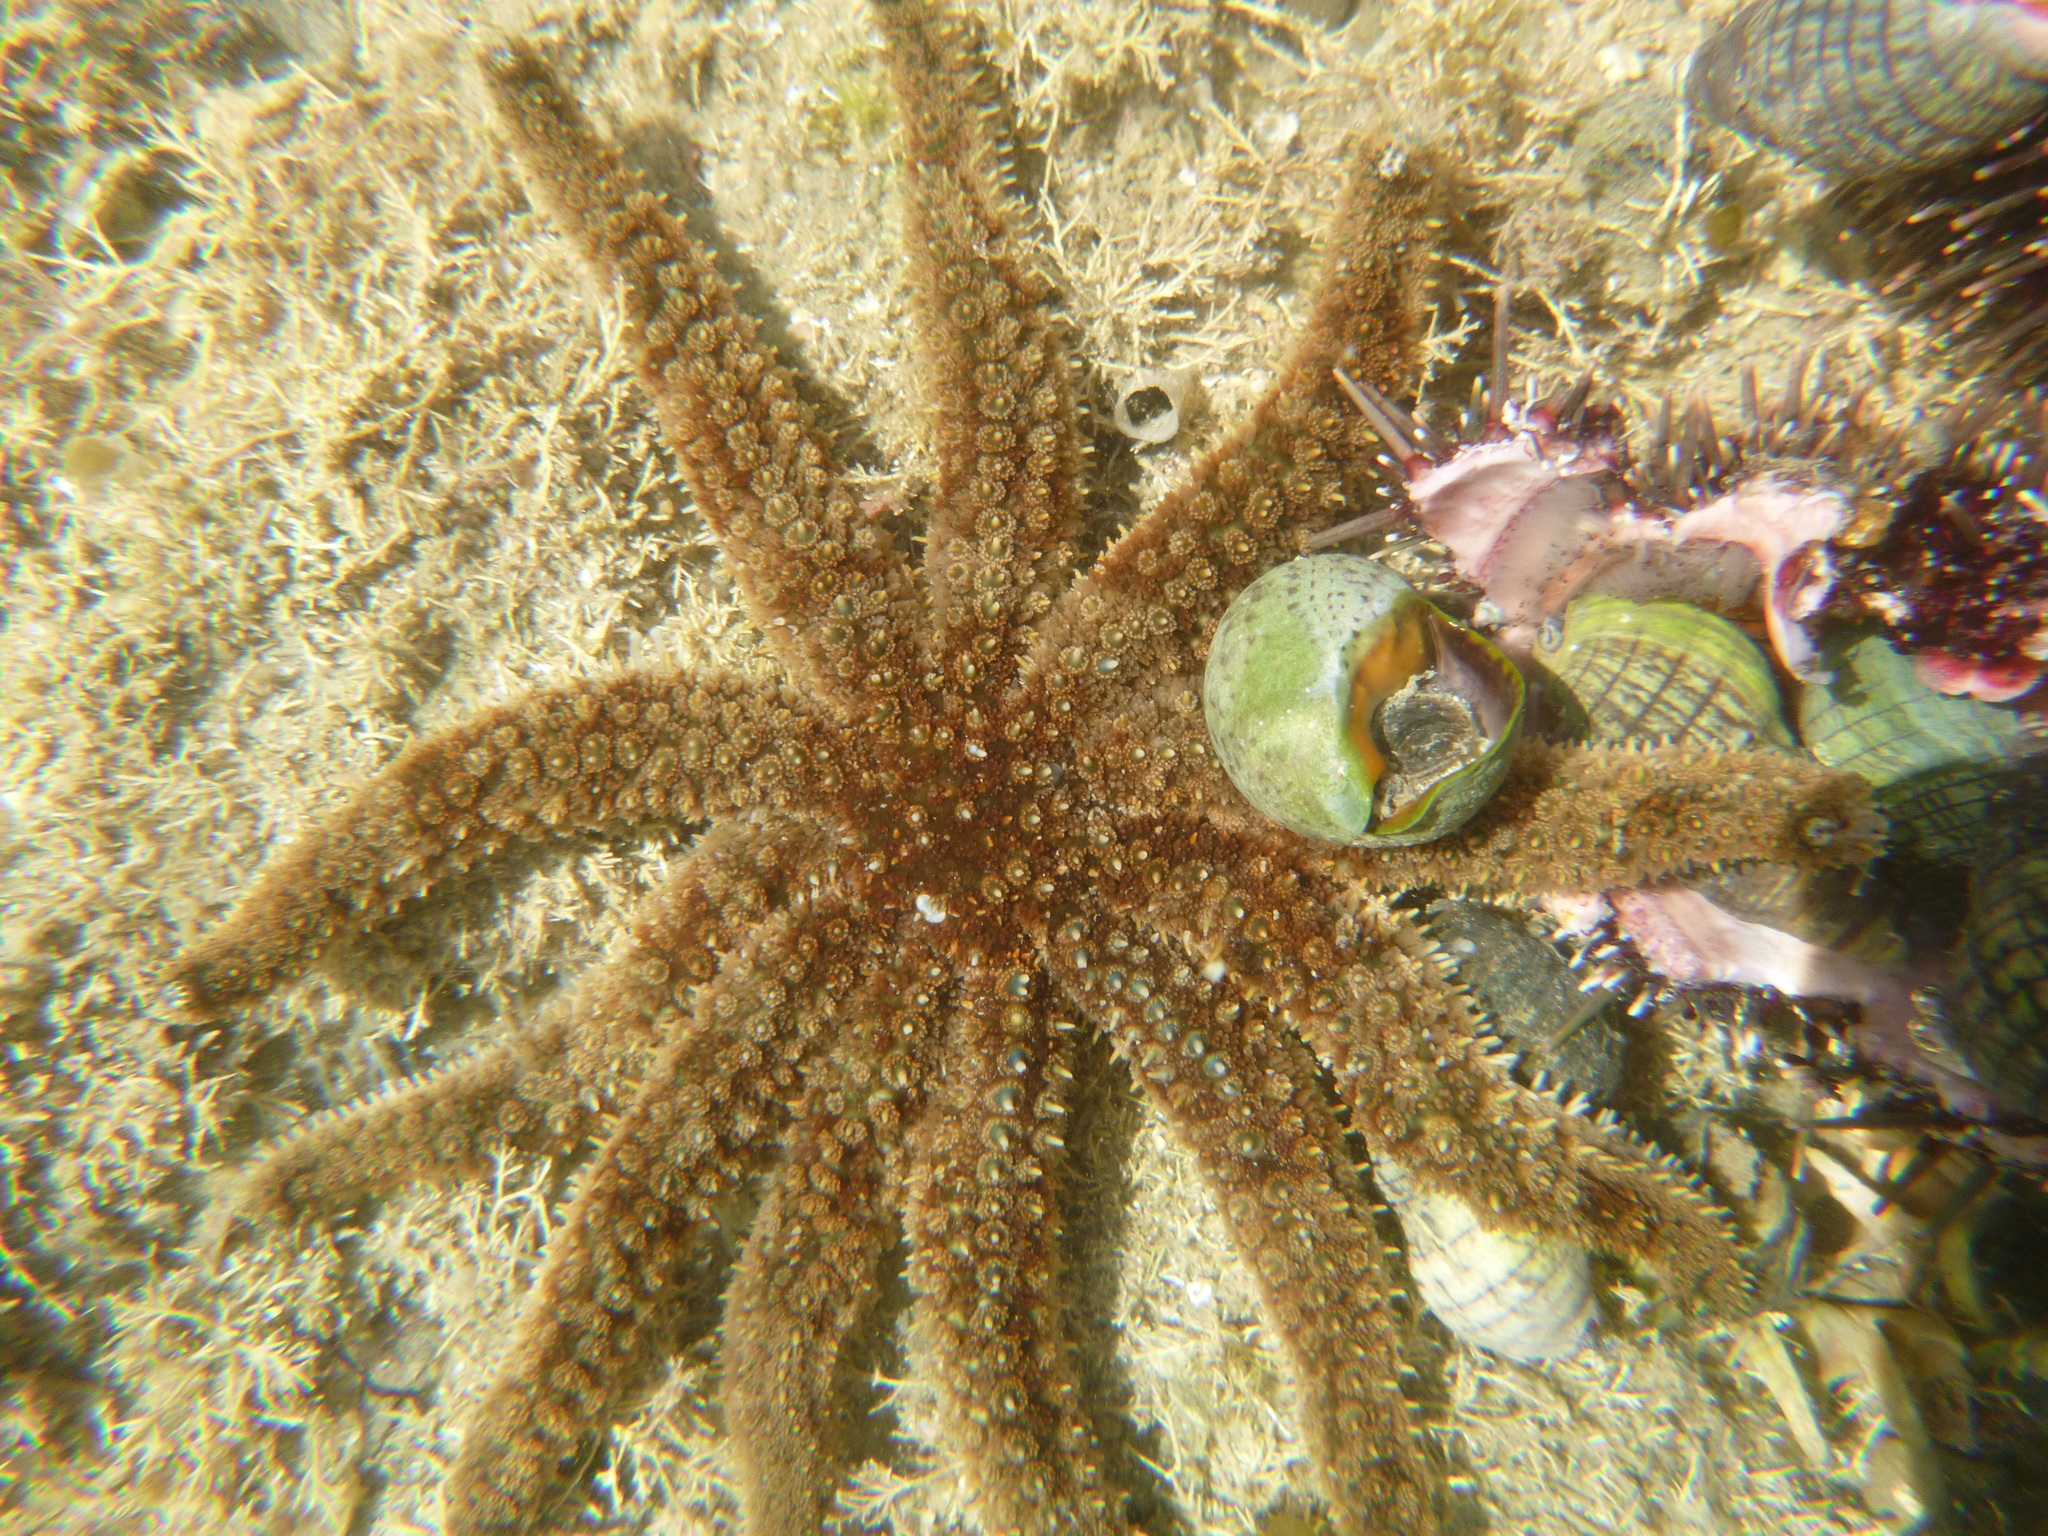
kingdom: Animalia
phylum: Echinodermata
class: Asteroidea
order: Forcipulatida
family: Asteriidae
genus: Coscinasterias
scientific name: Coscinasterias muricata
